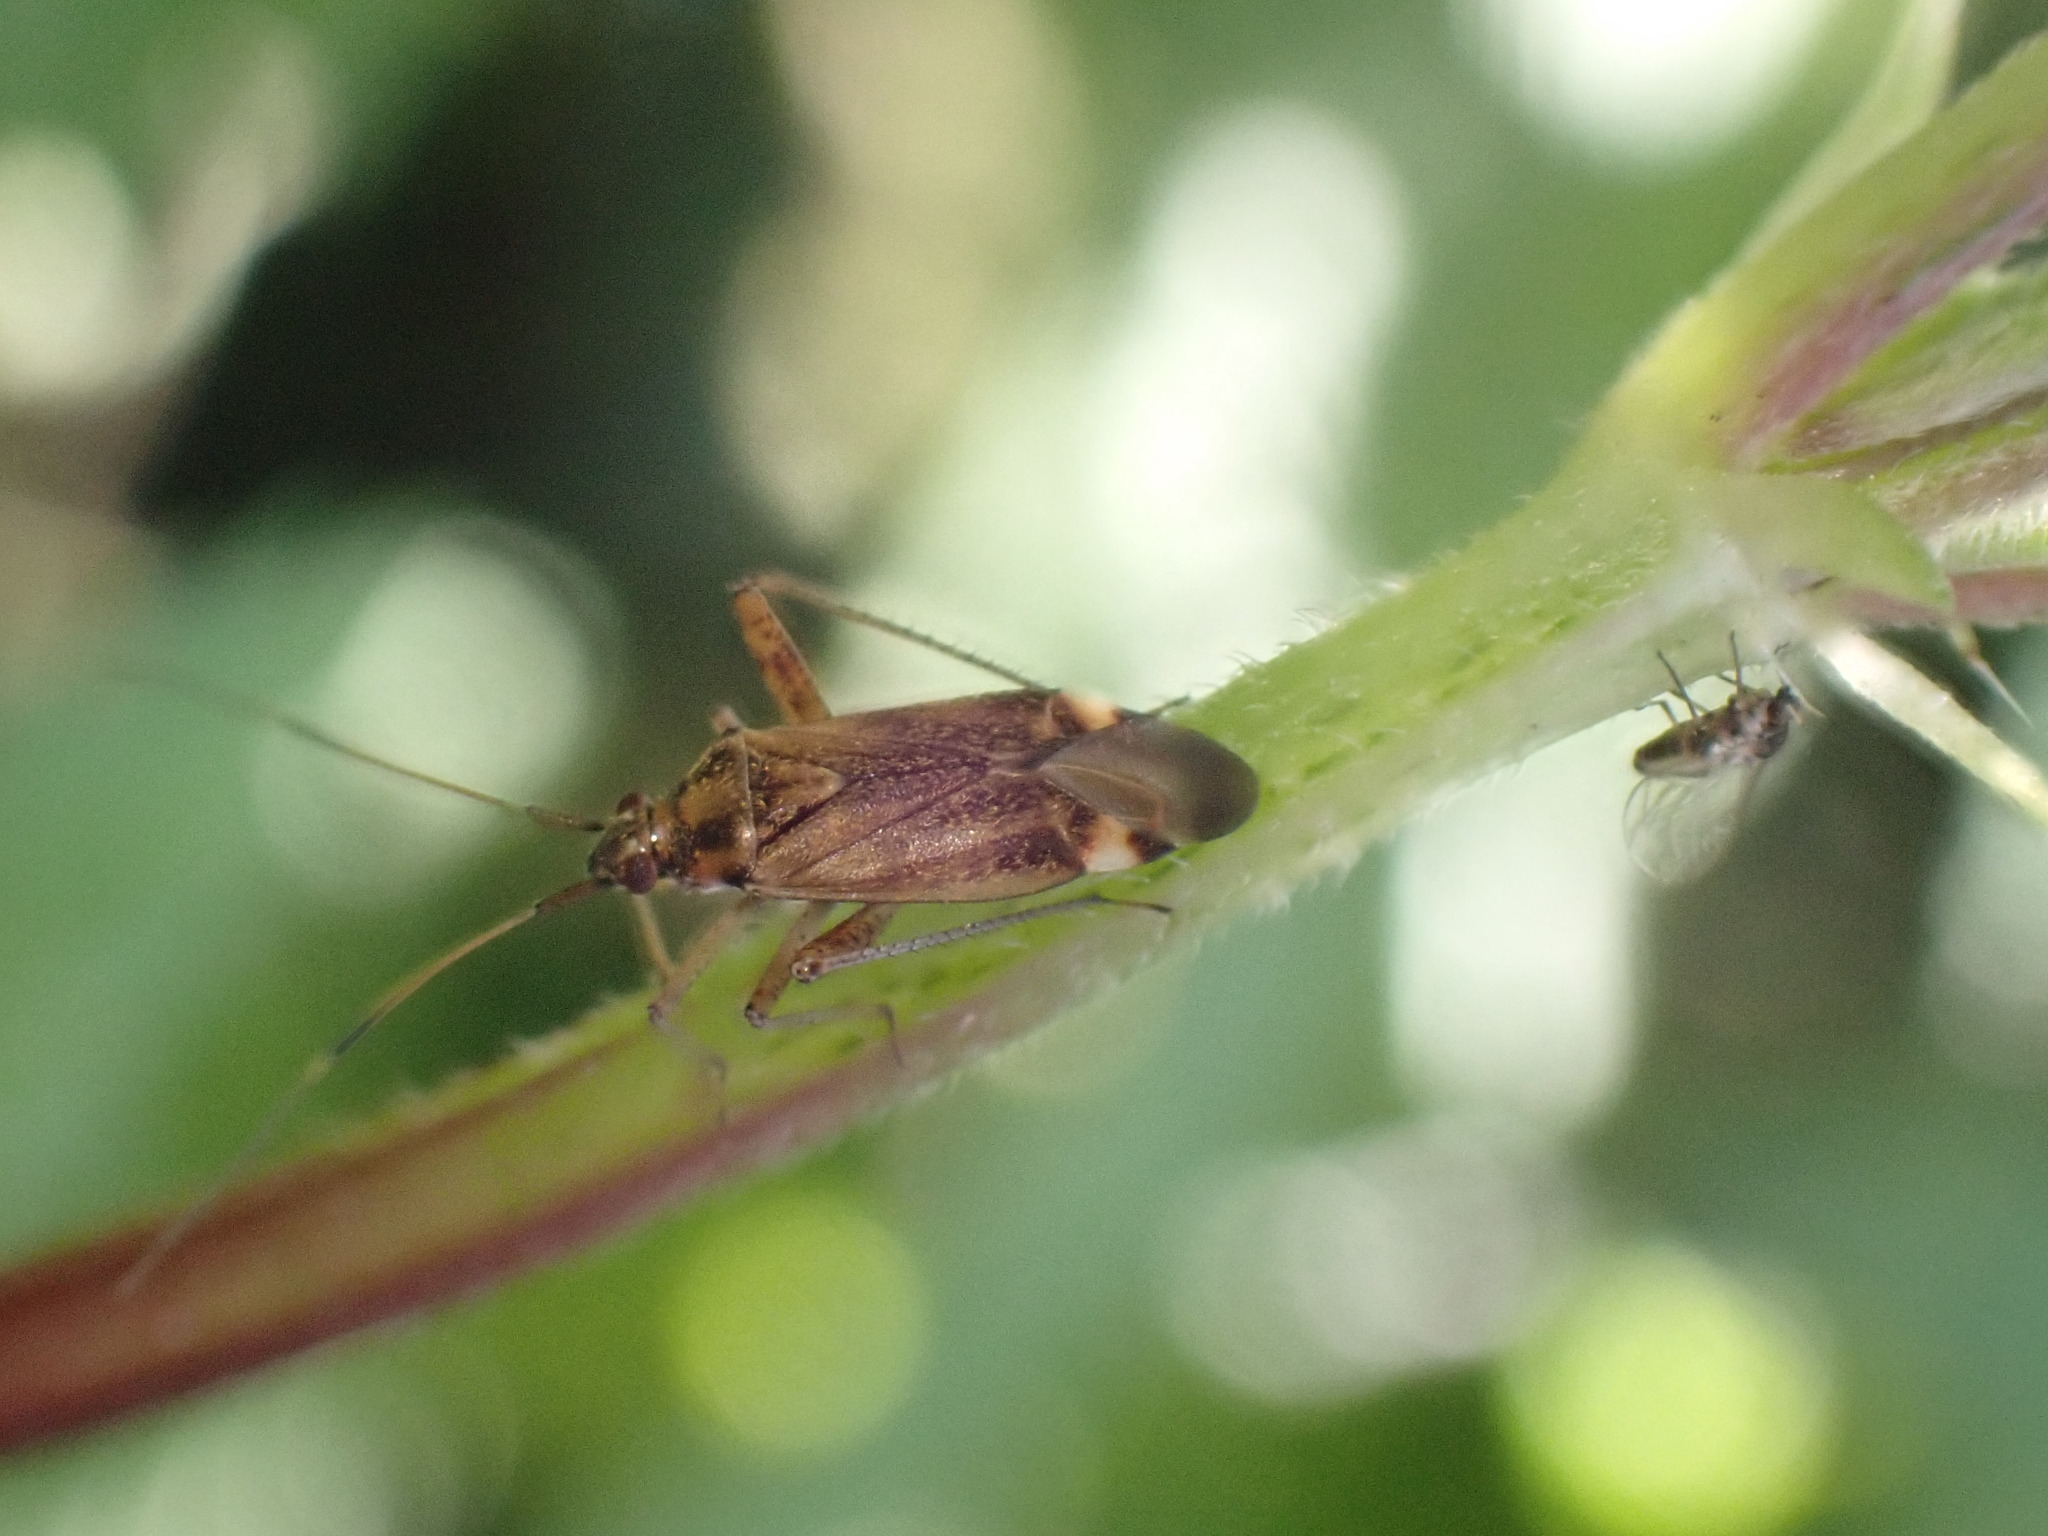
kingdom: Animalia
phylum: Arthropoda
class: Insecta
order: Hemiptera
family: Miridae
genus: Closterotomus
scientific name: Closterotomus fulvomaculatus
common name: Spotted plant bug
